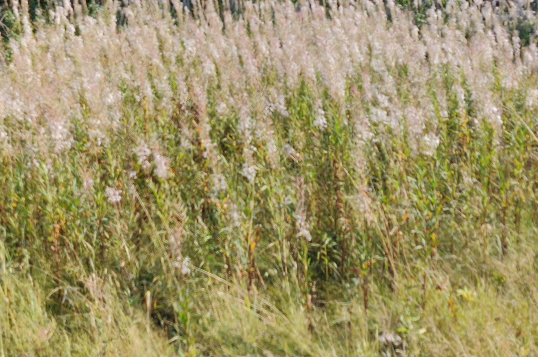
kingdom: Plantae
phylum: Tracheophyta
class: Magnoliopsida
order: Myrtales
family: Onagraceae
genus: Chamaenerion
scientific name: Chamaenerion angustifolium
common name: Fireweed
